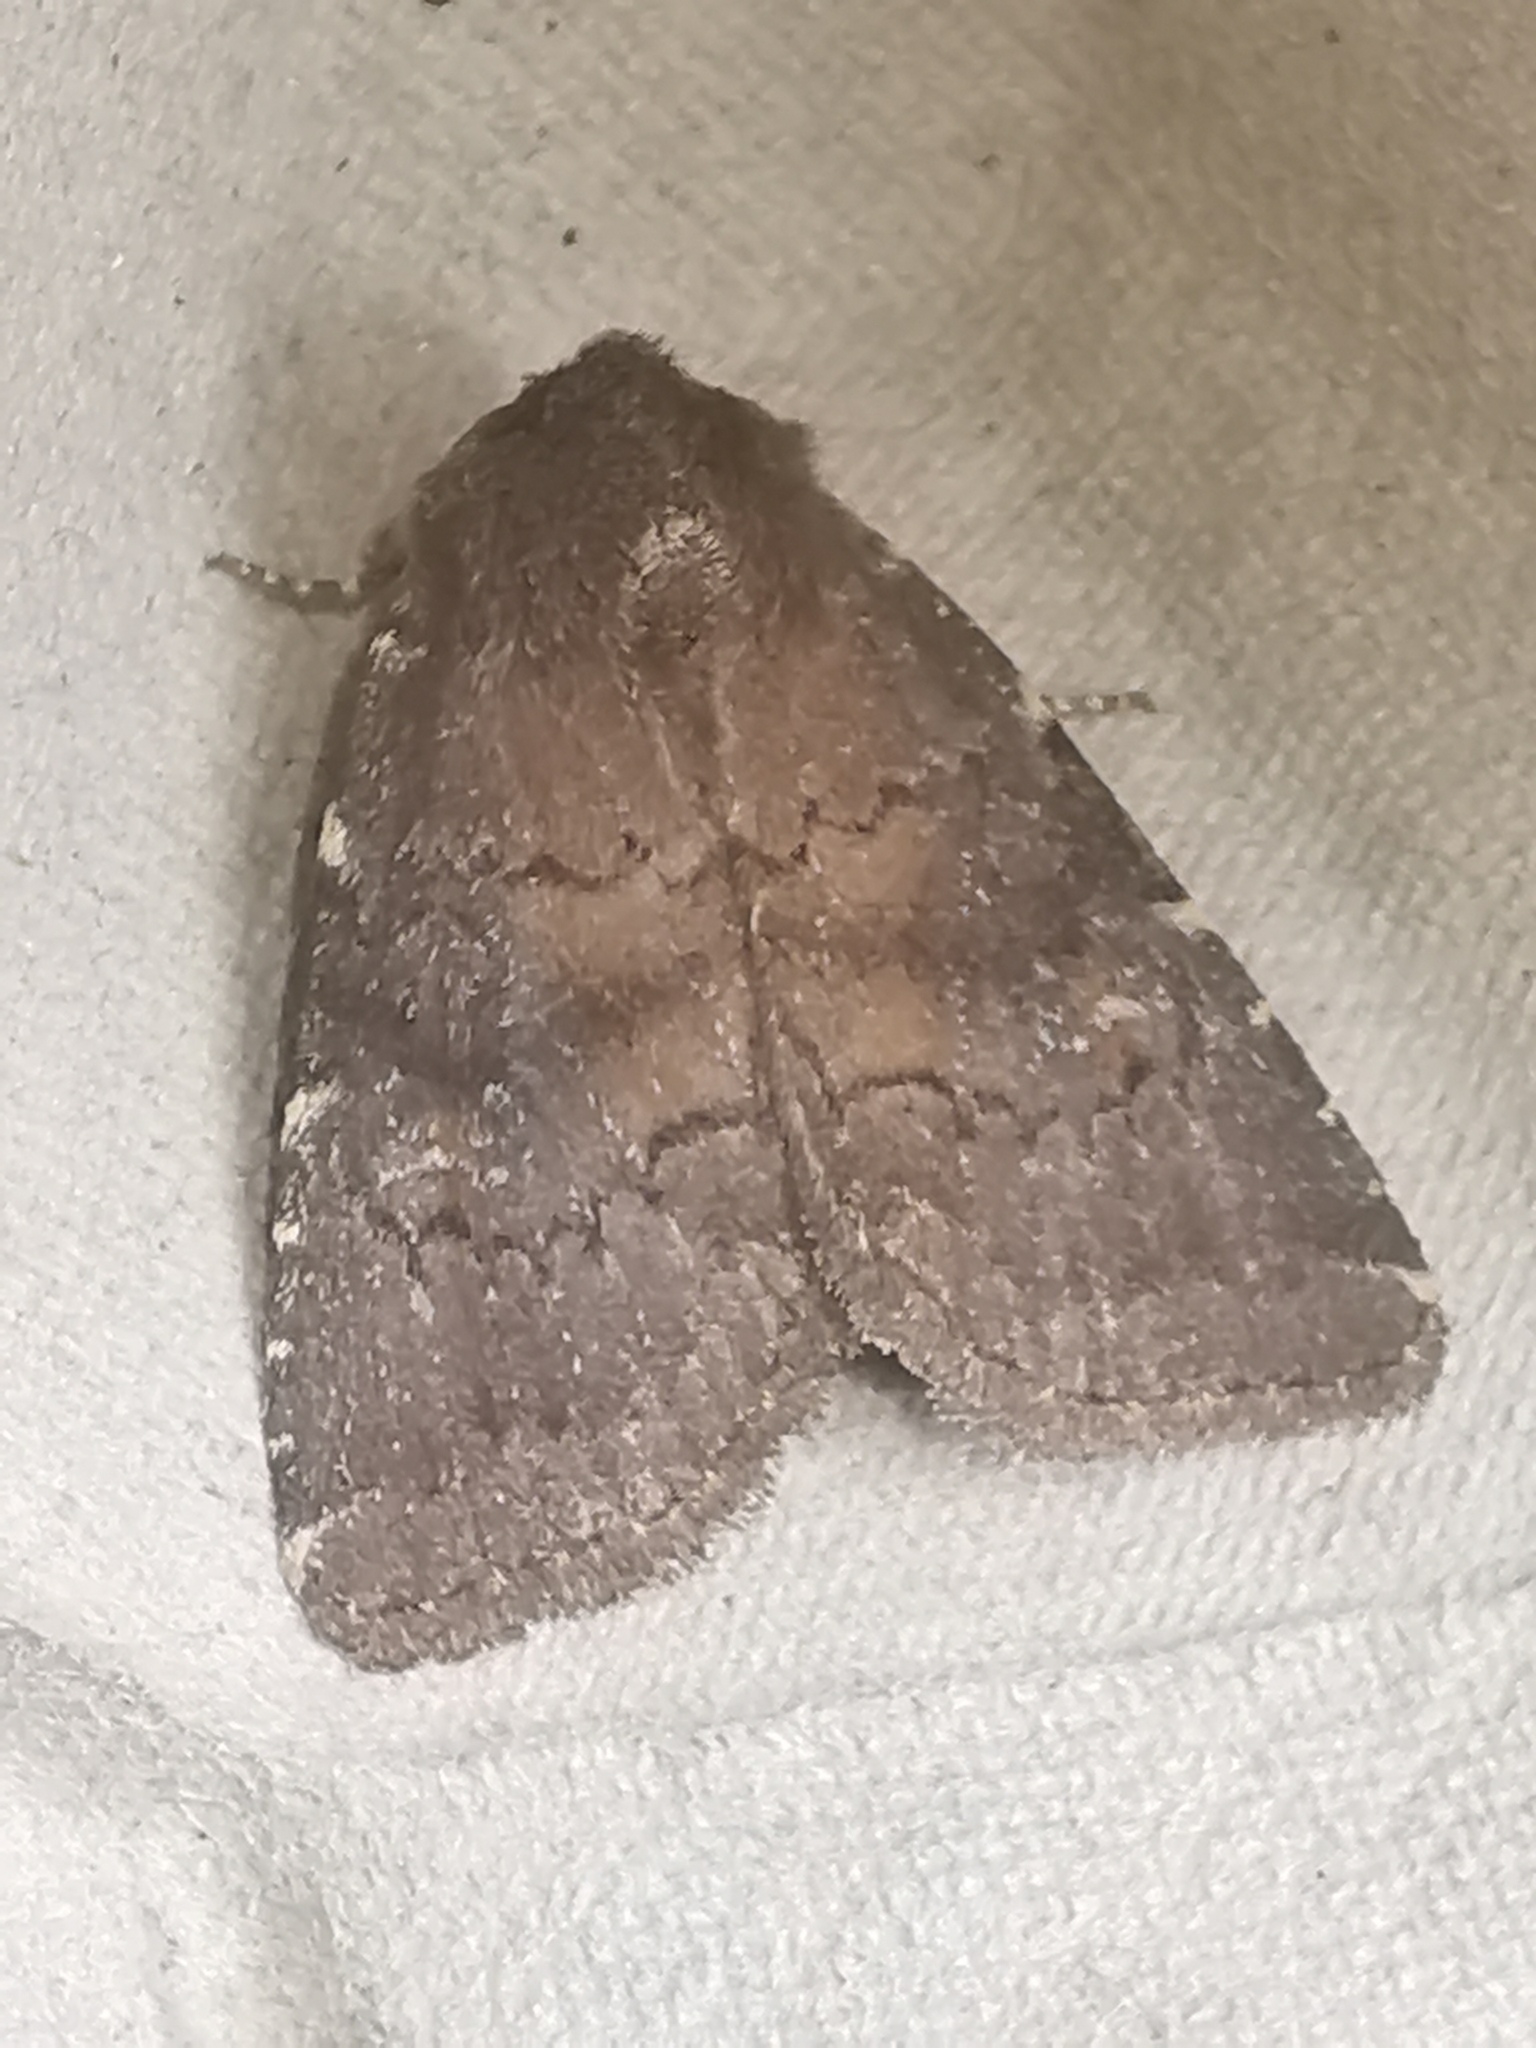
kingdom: Animalia
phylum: Arthropoda
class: Insecta
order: Lepidoptera
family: Noctuidae
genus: Charanyca
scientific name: Charanyca ferruginea
